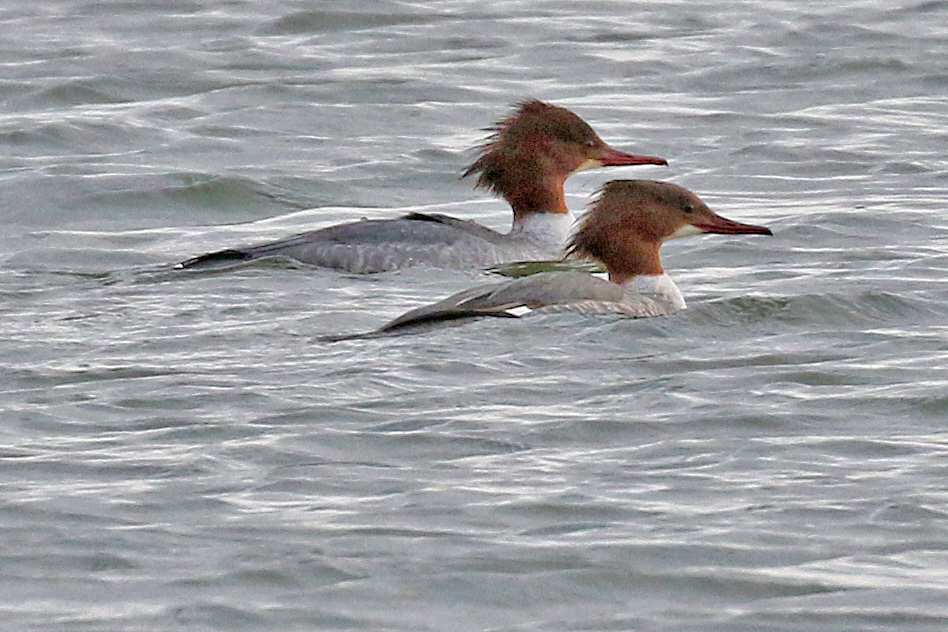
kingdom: Animalia
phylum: Chordata
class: Aves
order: Anseriformes
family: Anatidae
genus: Mergus
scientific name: Mergus merganser
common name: Common merganser
